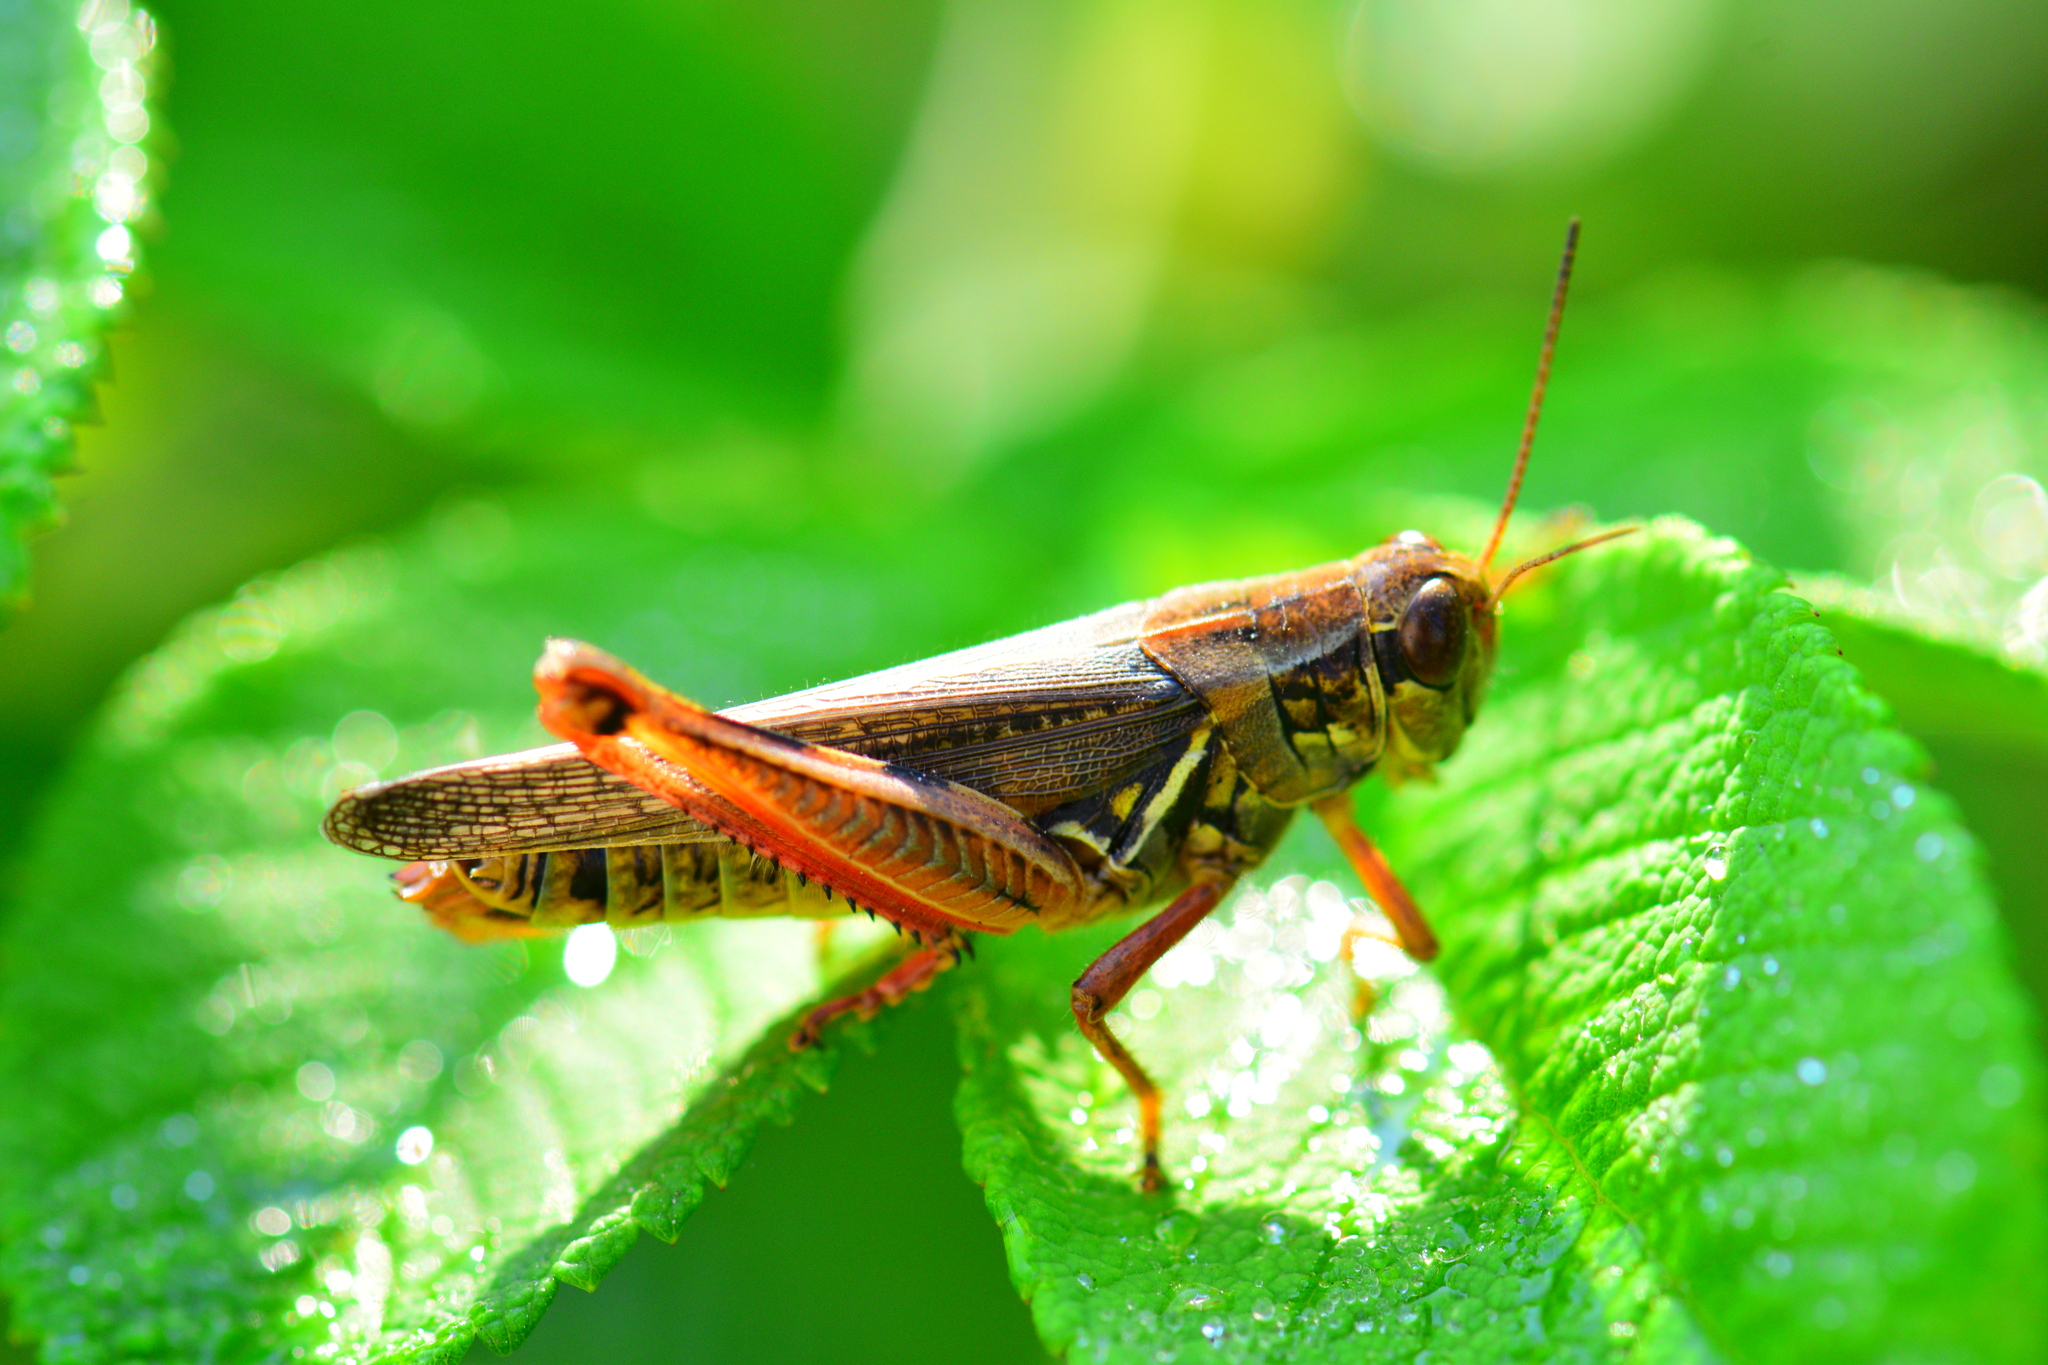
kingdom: Animalia
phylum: Arthropoda
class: Insecta
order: Orthoptera
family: Acrididae
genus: Melanoplus
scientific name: Melanoplus femurrubrum
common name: Red-legged grasshopper
